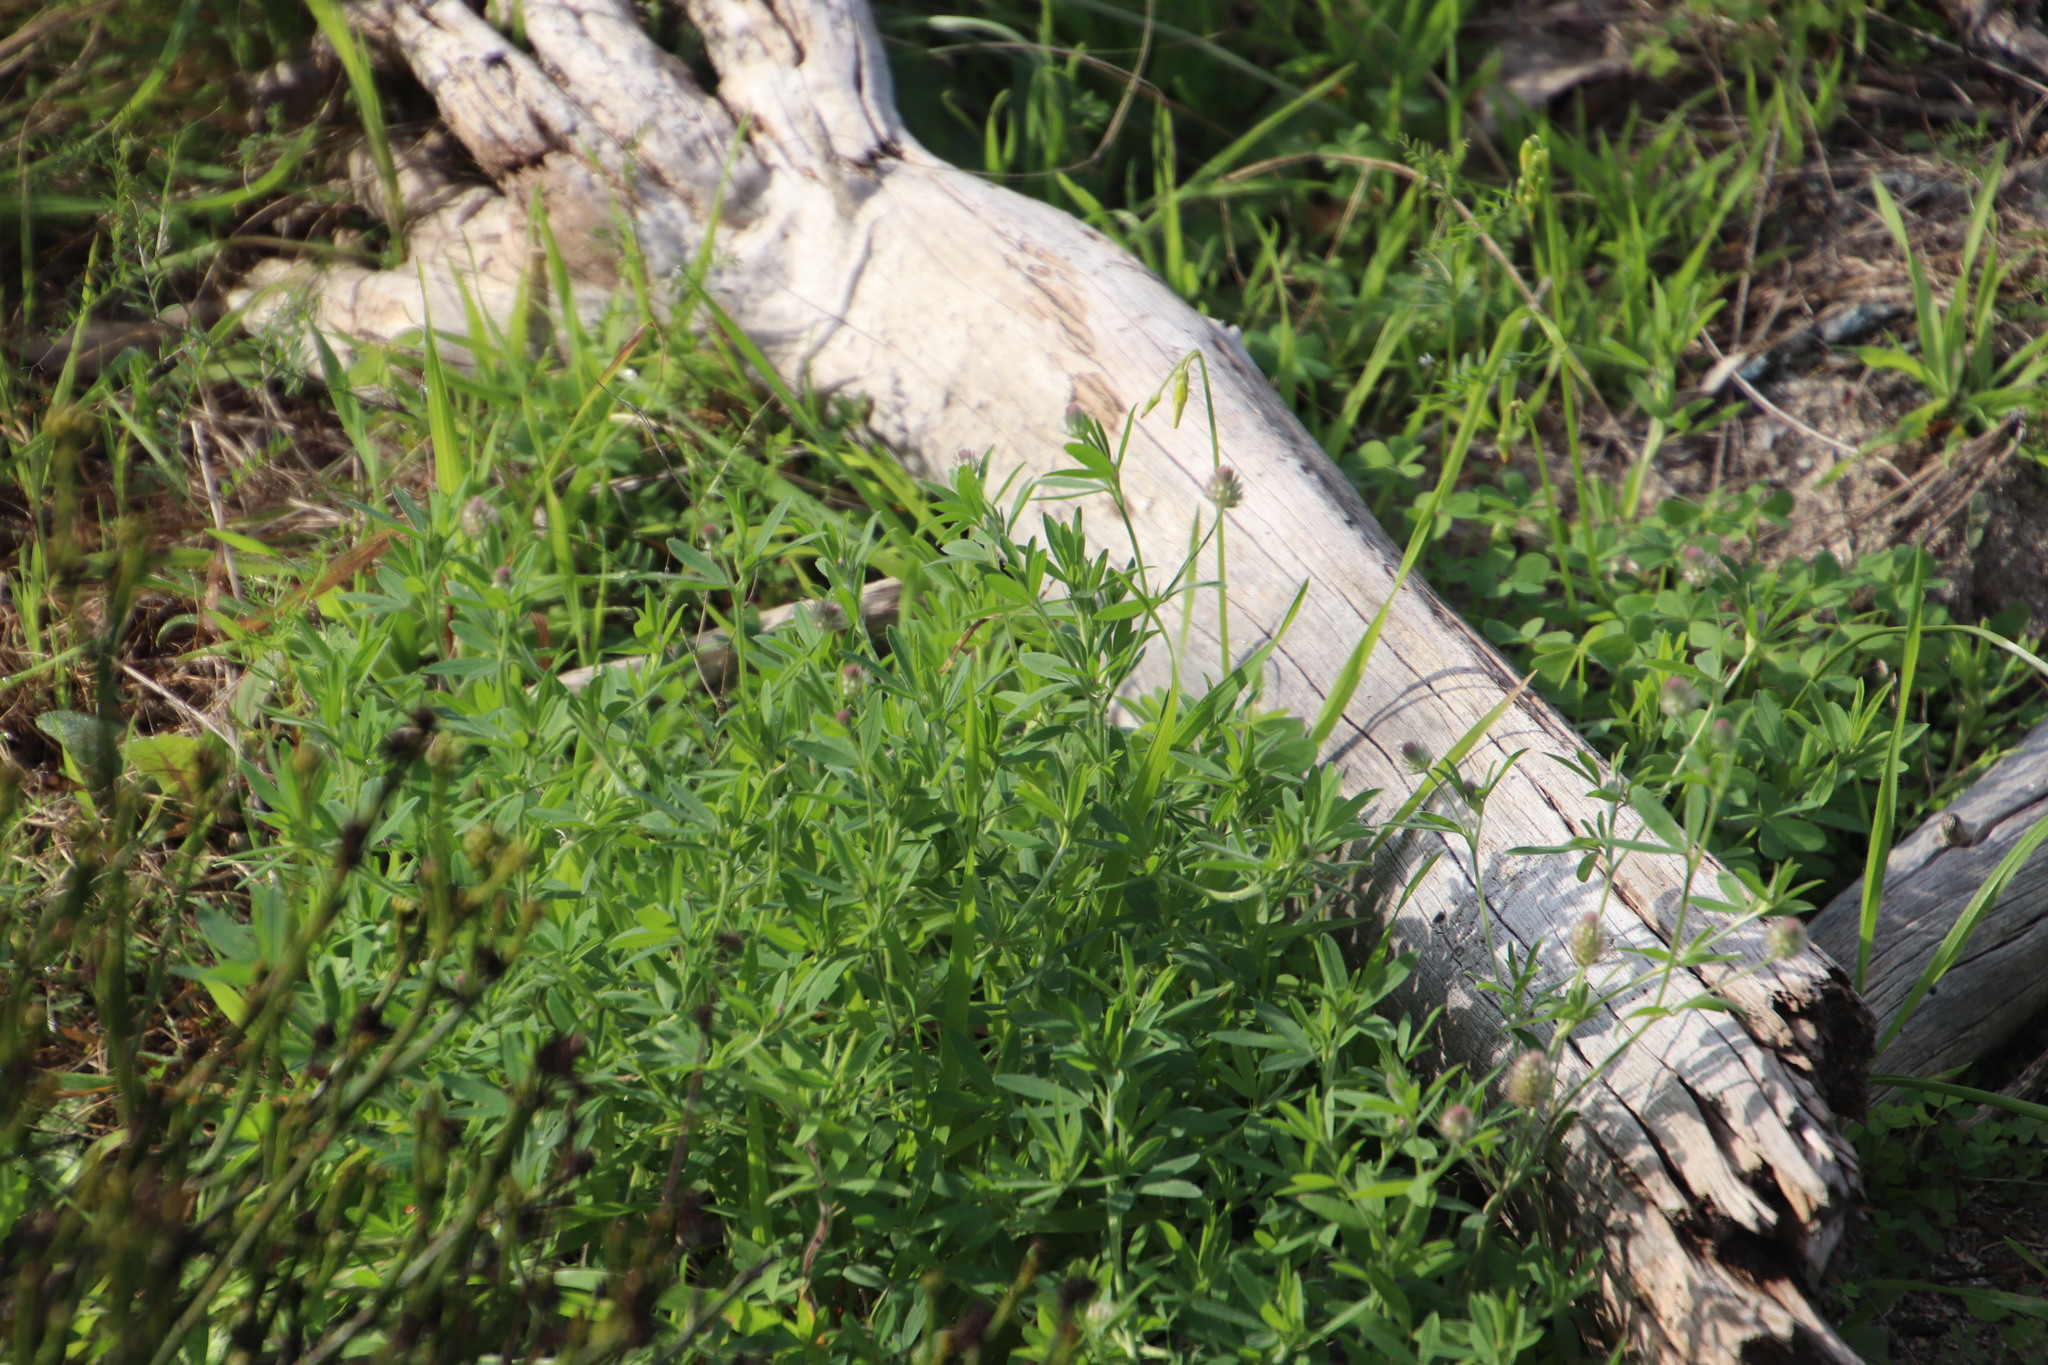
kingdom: Plantae
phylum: Tracheophyta
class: Magnoliopsida
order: Fabales
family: Fabaceae
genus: Trifolium
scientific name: Trifolium arvense
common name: Hare's-foot clover
